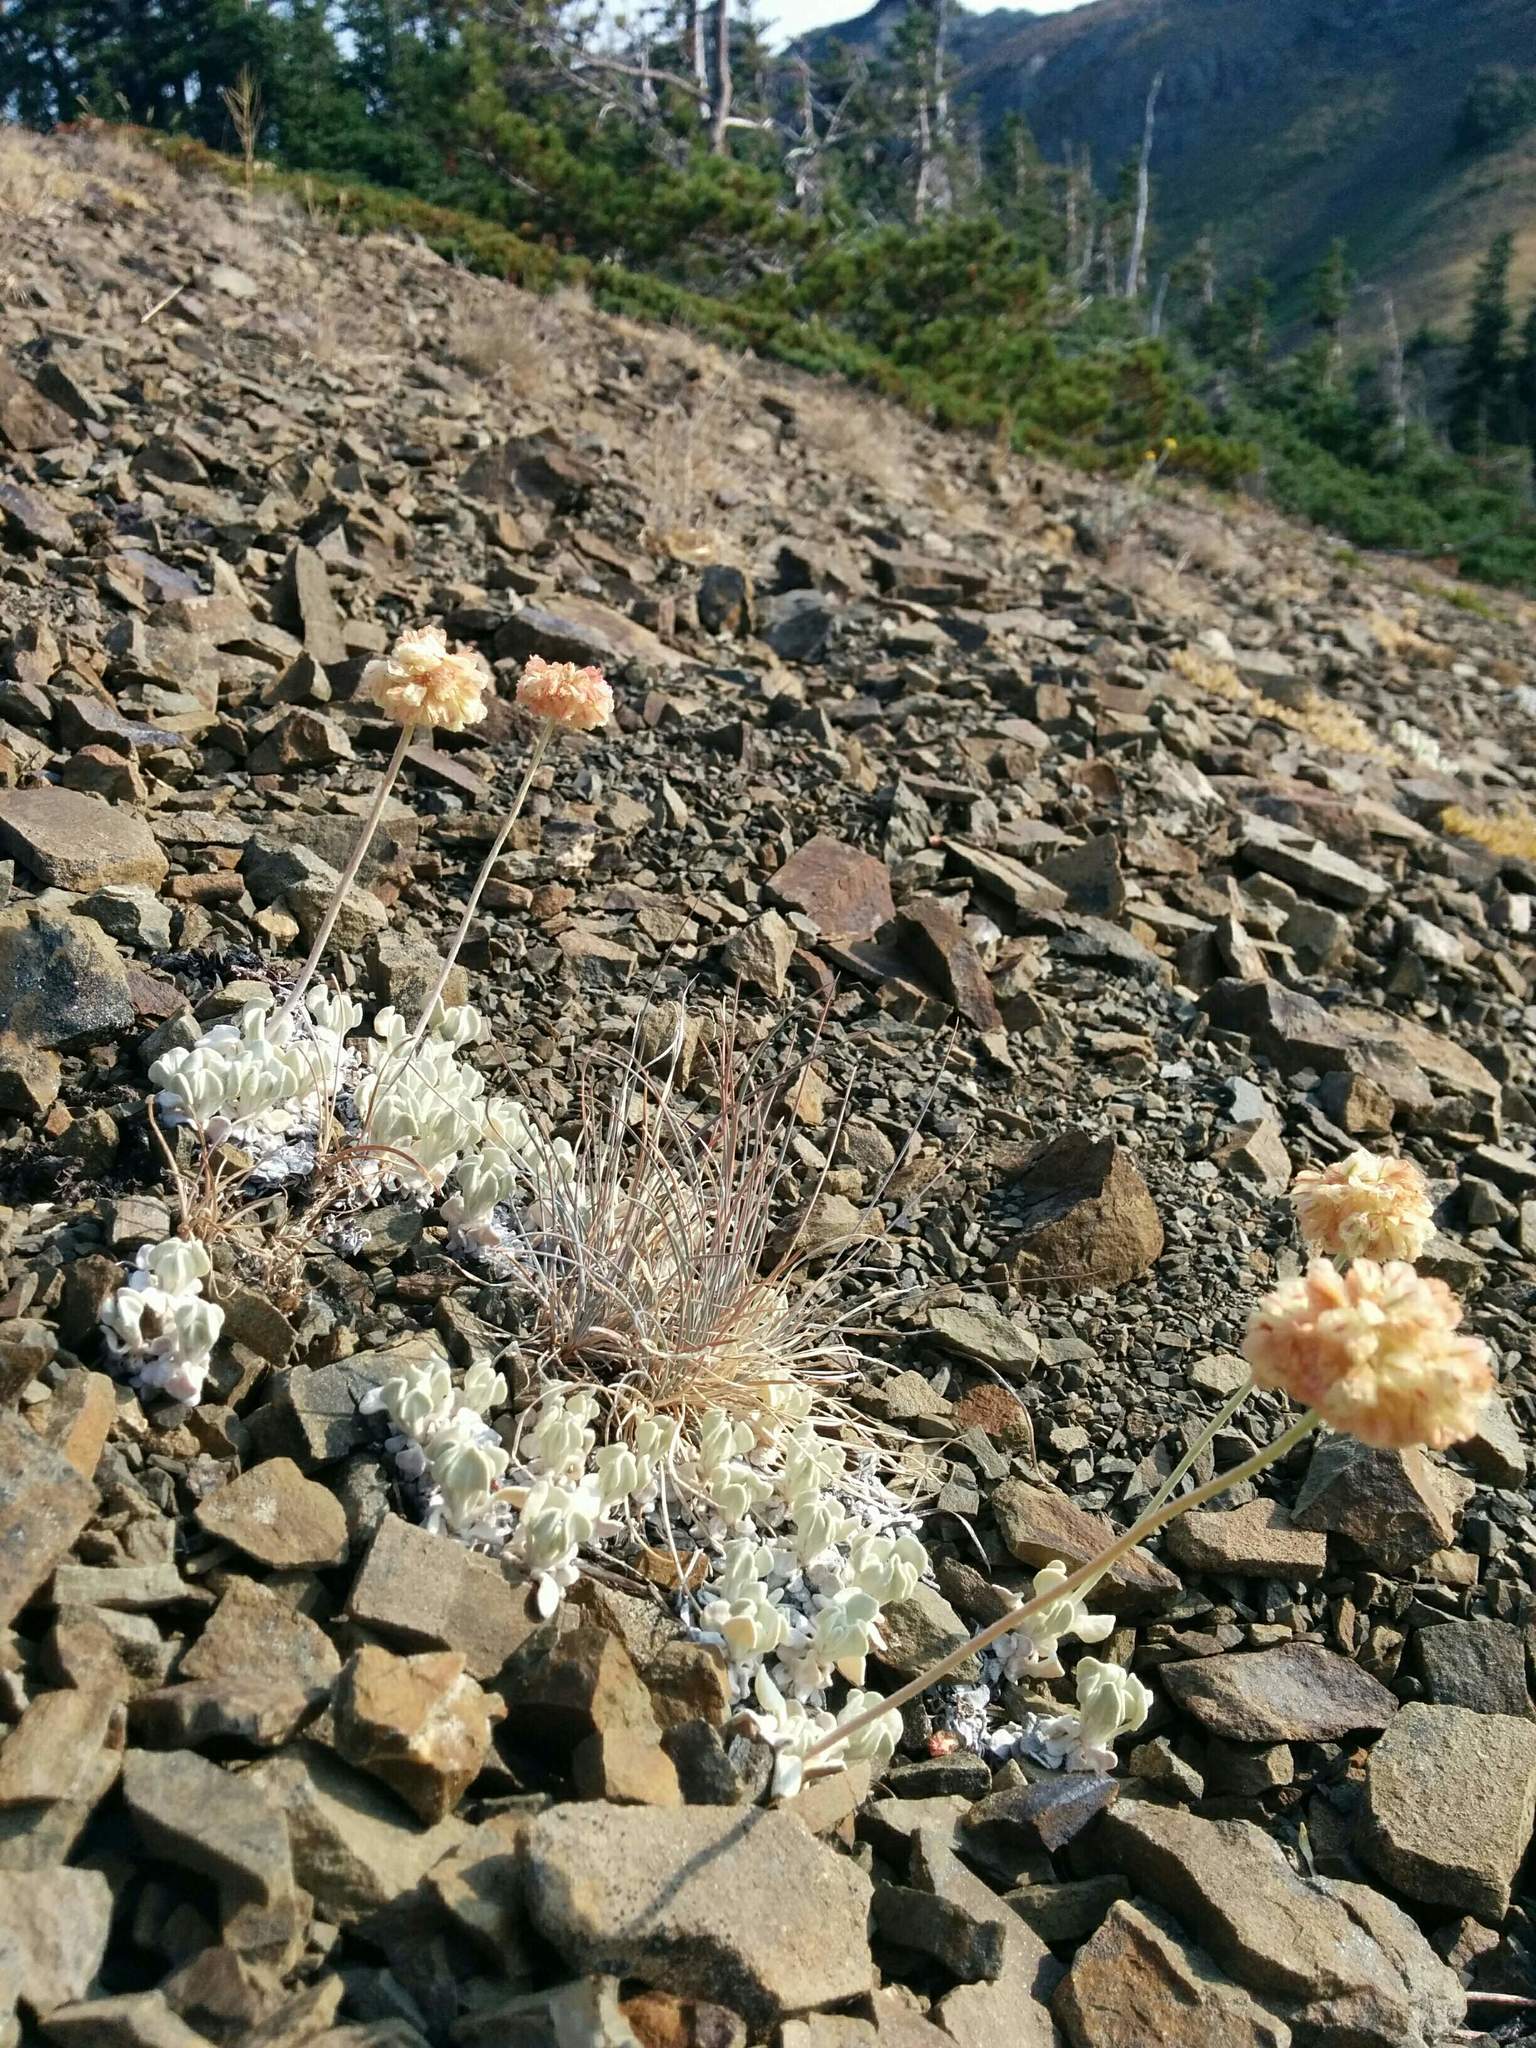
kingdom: Plantae
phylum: Tracheophyta
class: Magnoliopsida
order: Caryophyllales
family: Polygonaceae
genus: Eriogonum
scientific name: Eriogonum ovalifolium
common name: Cushion buckwheat
